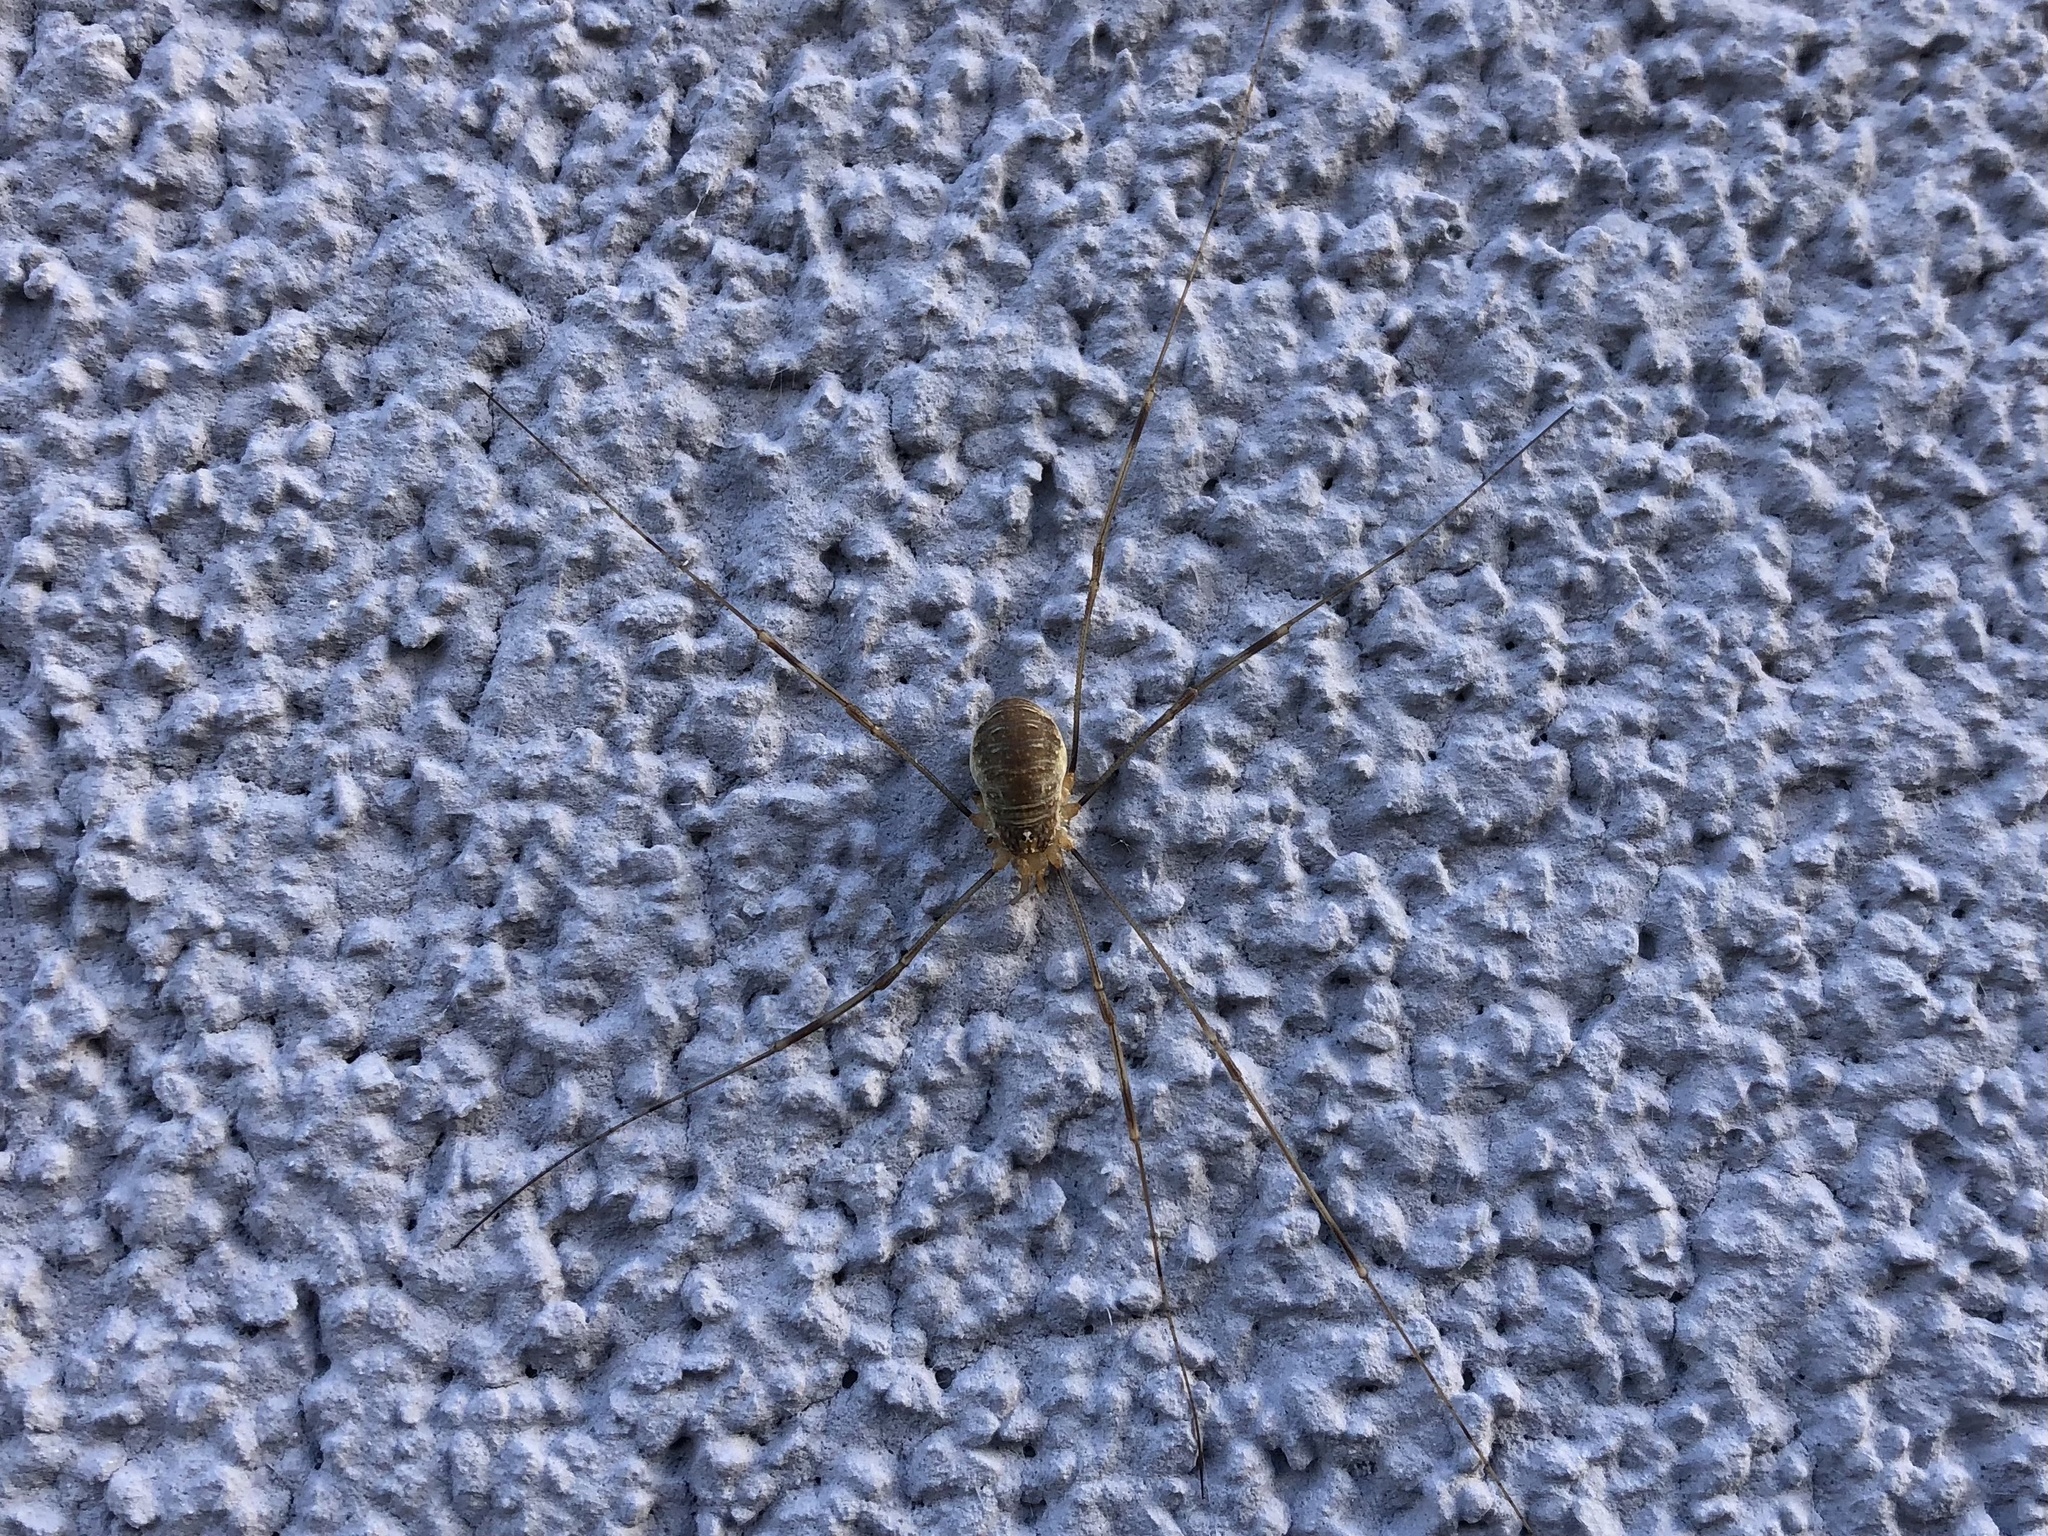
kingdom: Animalia
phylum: Arthropoda
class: Arachnida
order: Opiliones
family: Phalangiidae
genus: Opilio
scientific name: Opilio canestrinii
